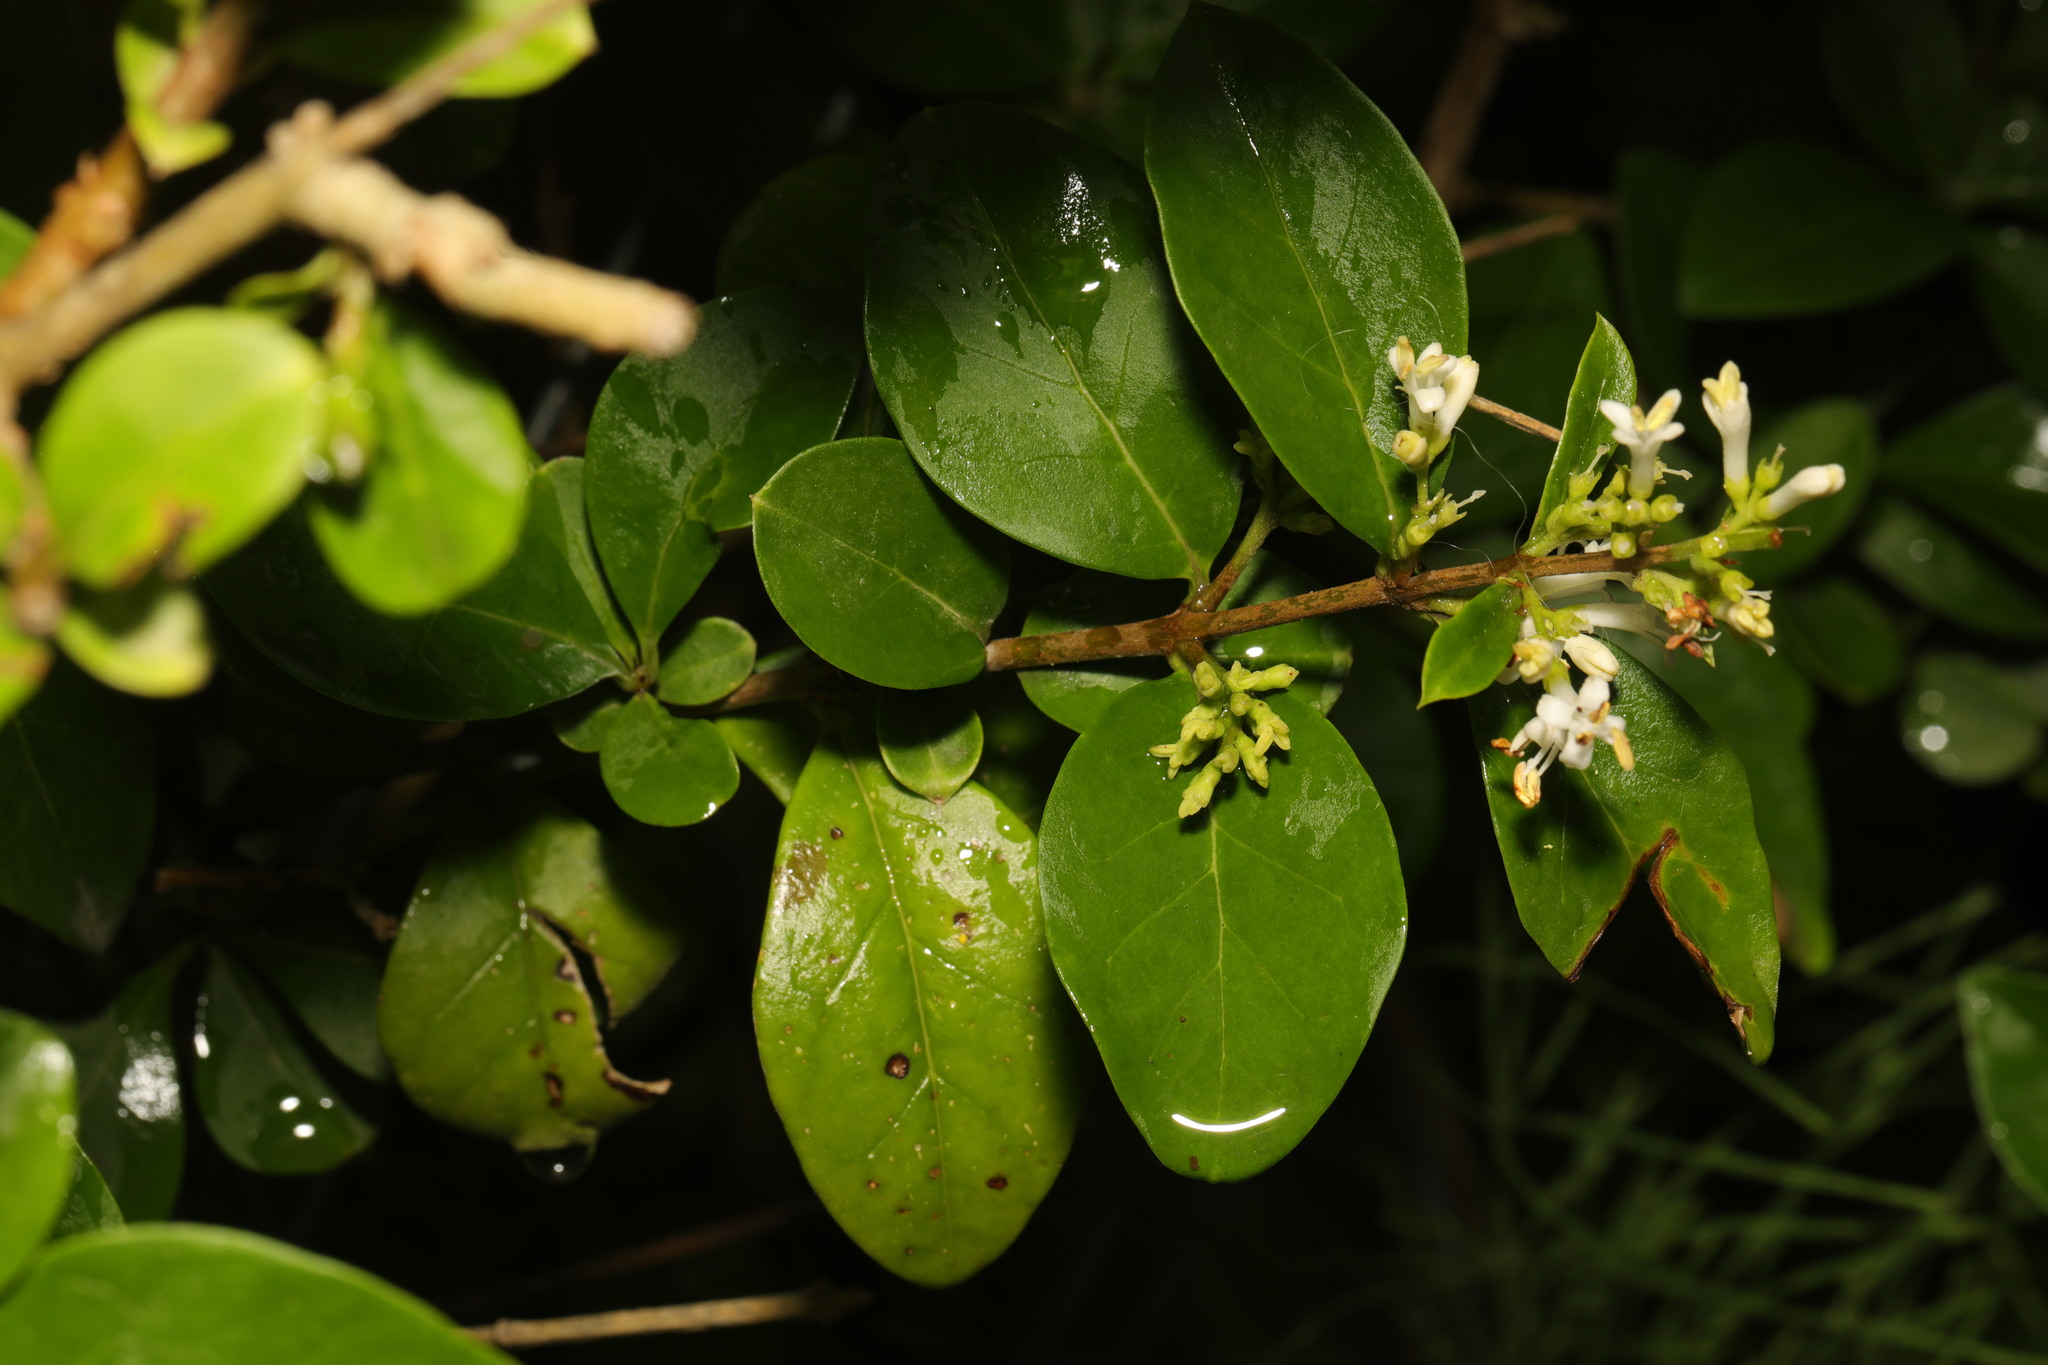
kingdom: Plantae
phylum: Tracheophyta
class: Magnoliopsida
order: Lamiales
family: Oleaceae
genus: Ligustrum
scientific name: Ligustrum ovalifolium
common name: California privet
